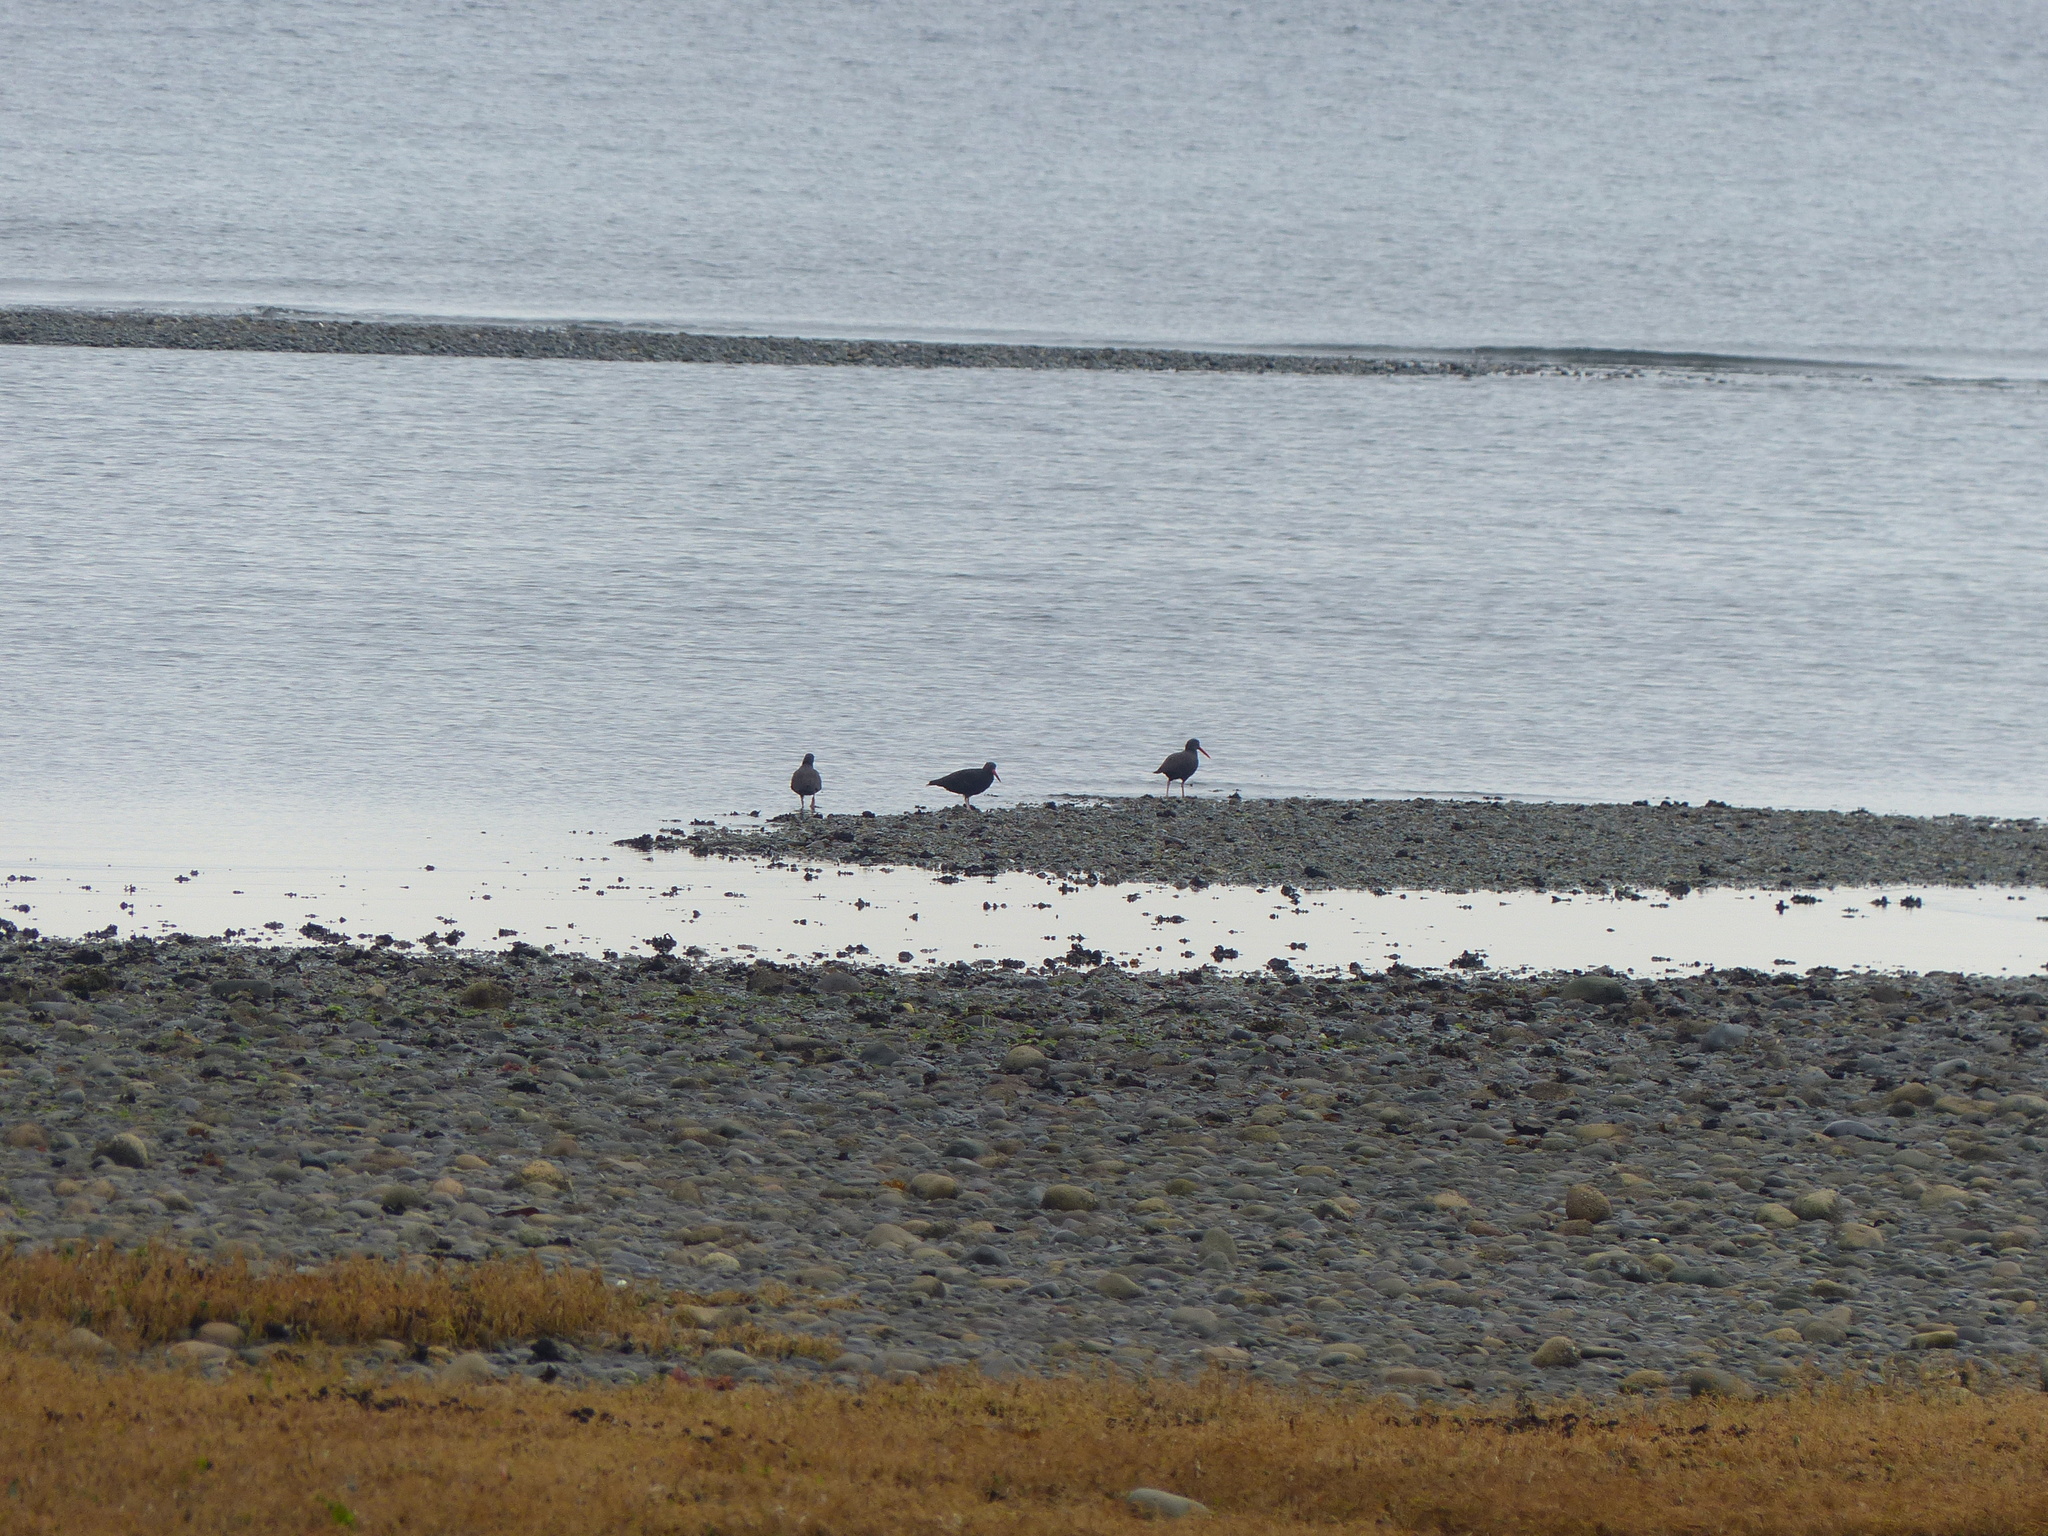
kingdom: Animalia
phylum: Chordata
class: Aves
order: Charadriiformes
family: Haematopodidae
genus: Haematopus
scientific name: Haematopus bachmani
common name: Black oystercatcher
